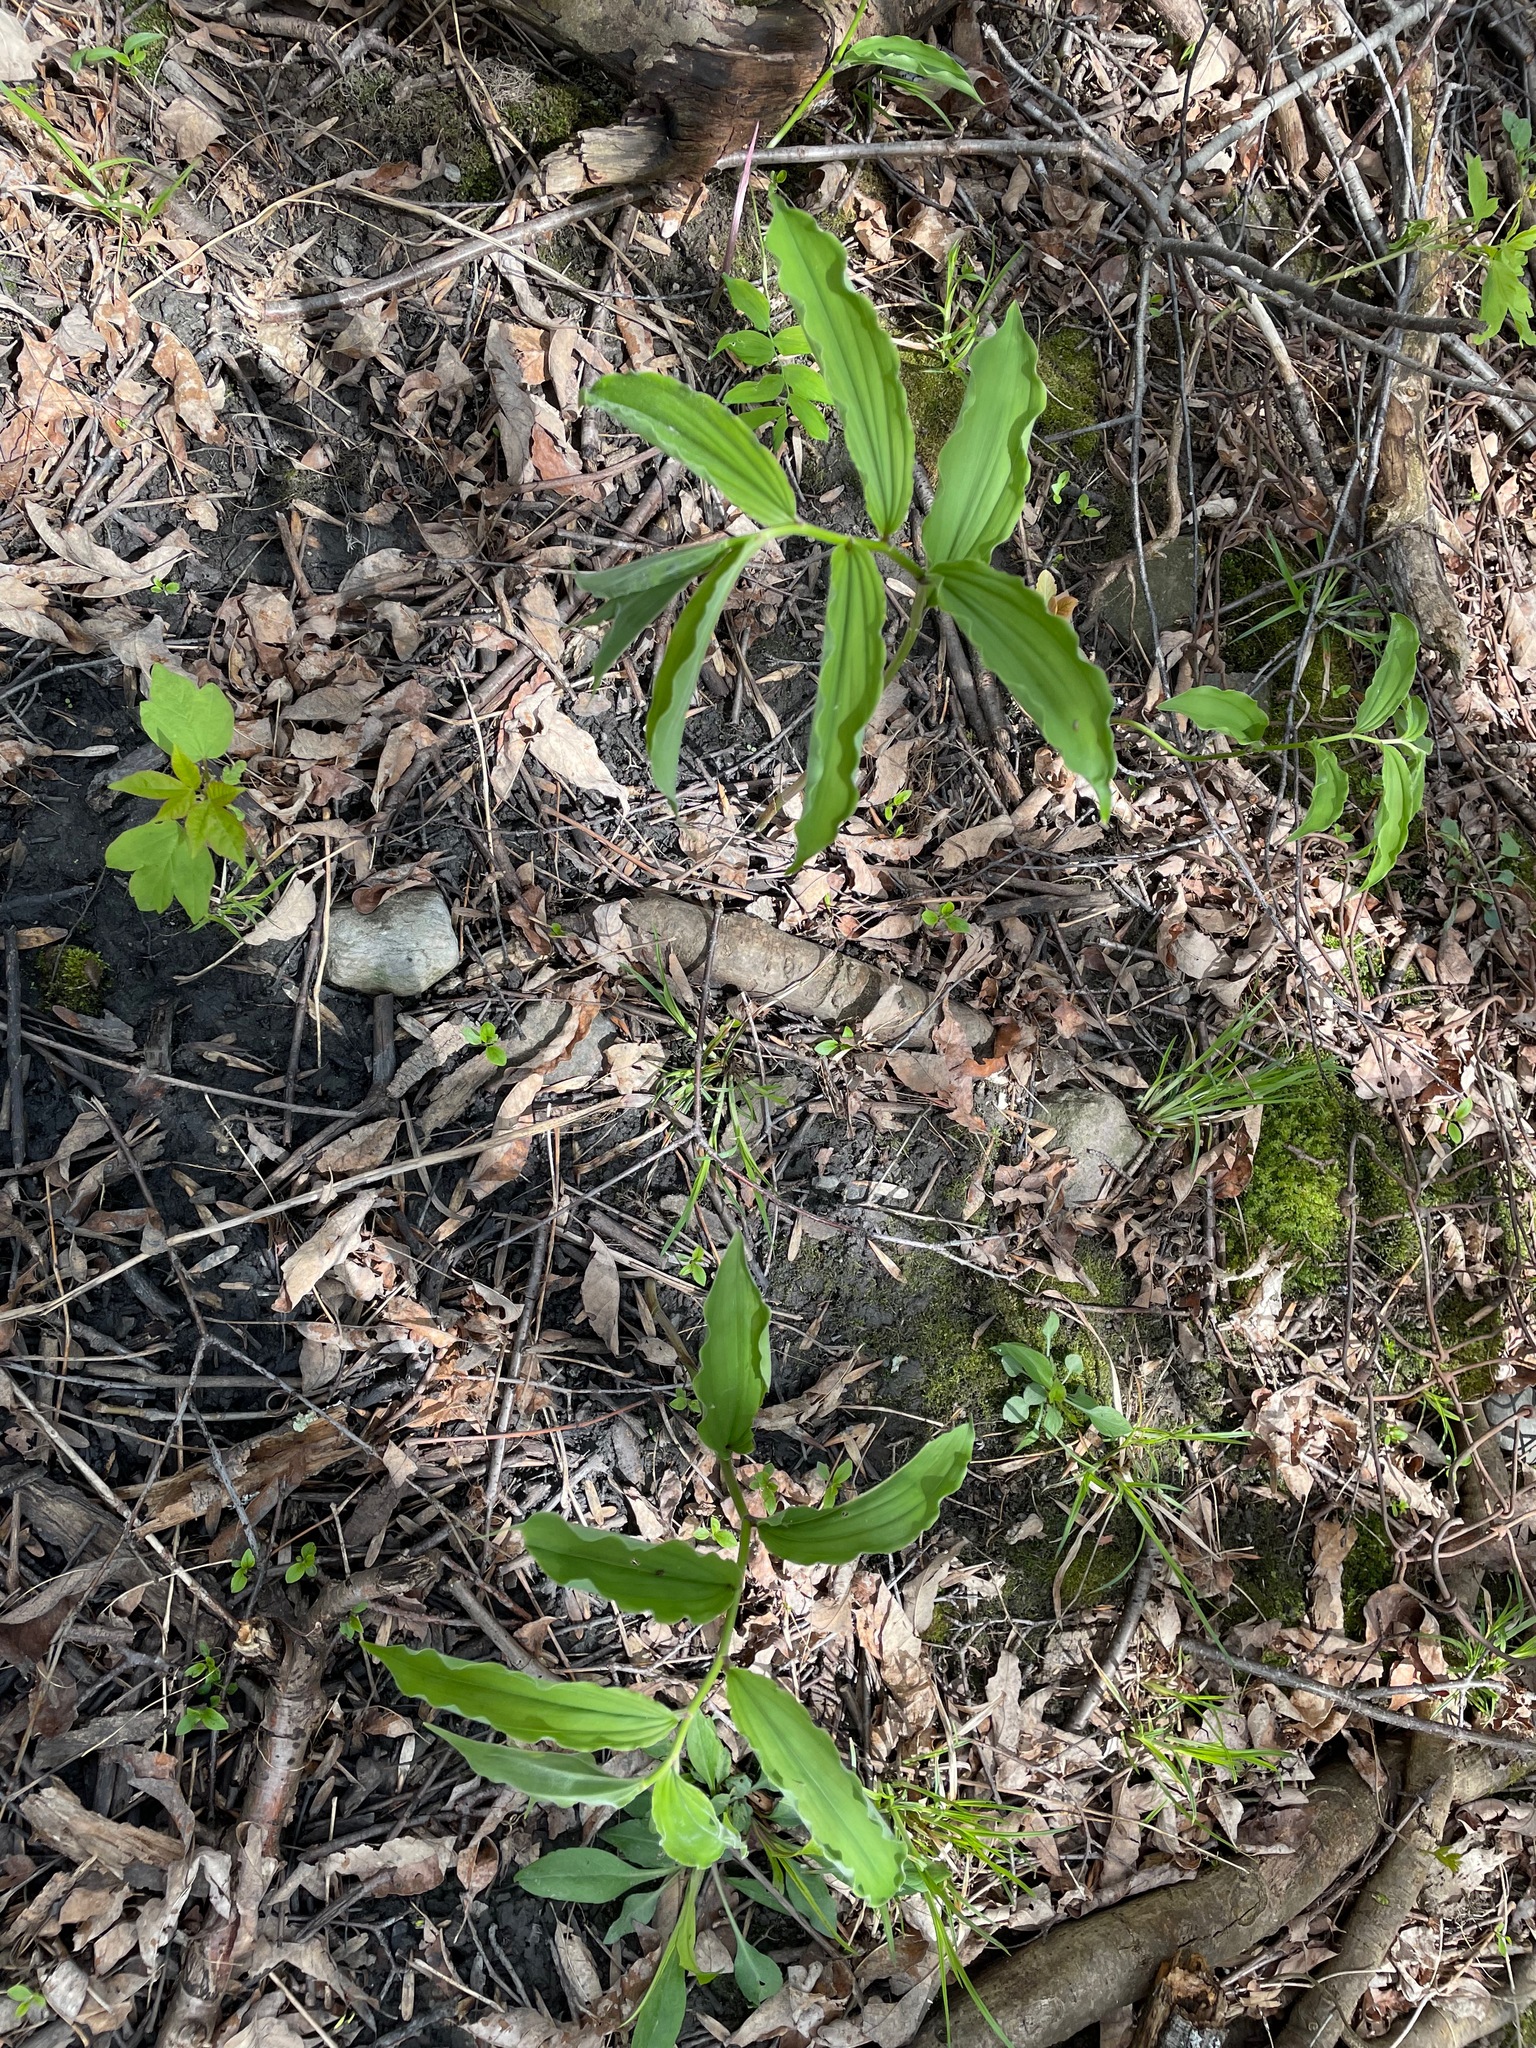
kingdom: Plantae
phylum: Tracheophyta
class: Liliopsida
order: Asparagales
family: Asparagaceae
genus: Maianthemum
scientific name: Maianthemum racemosum
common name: False spikenard
